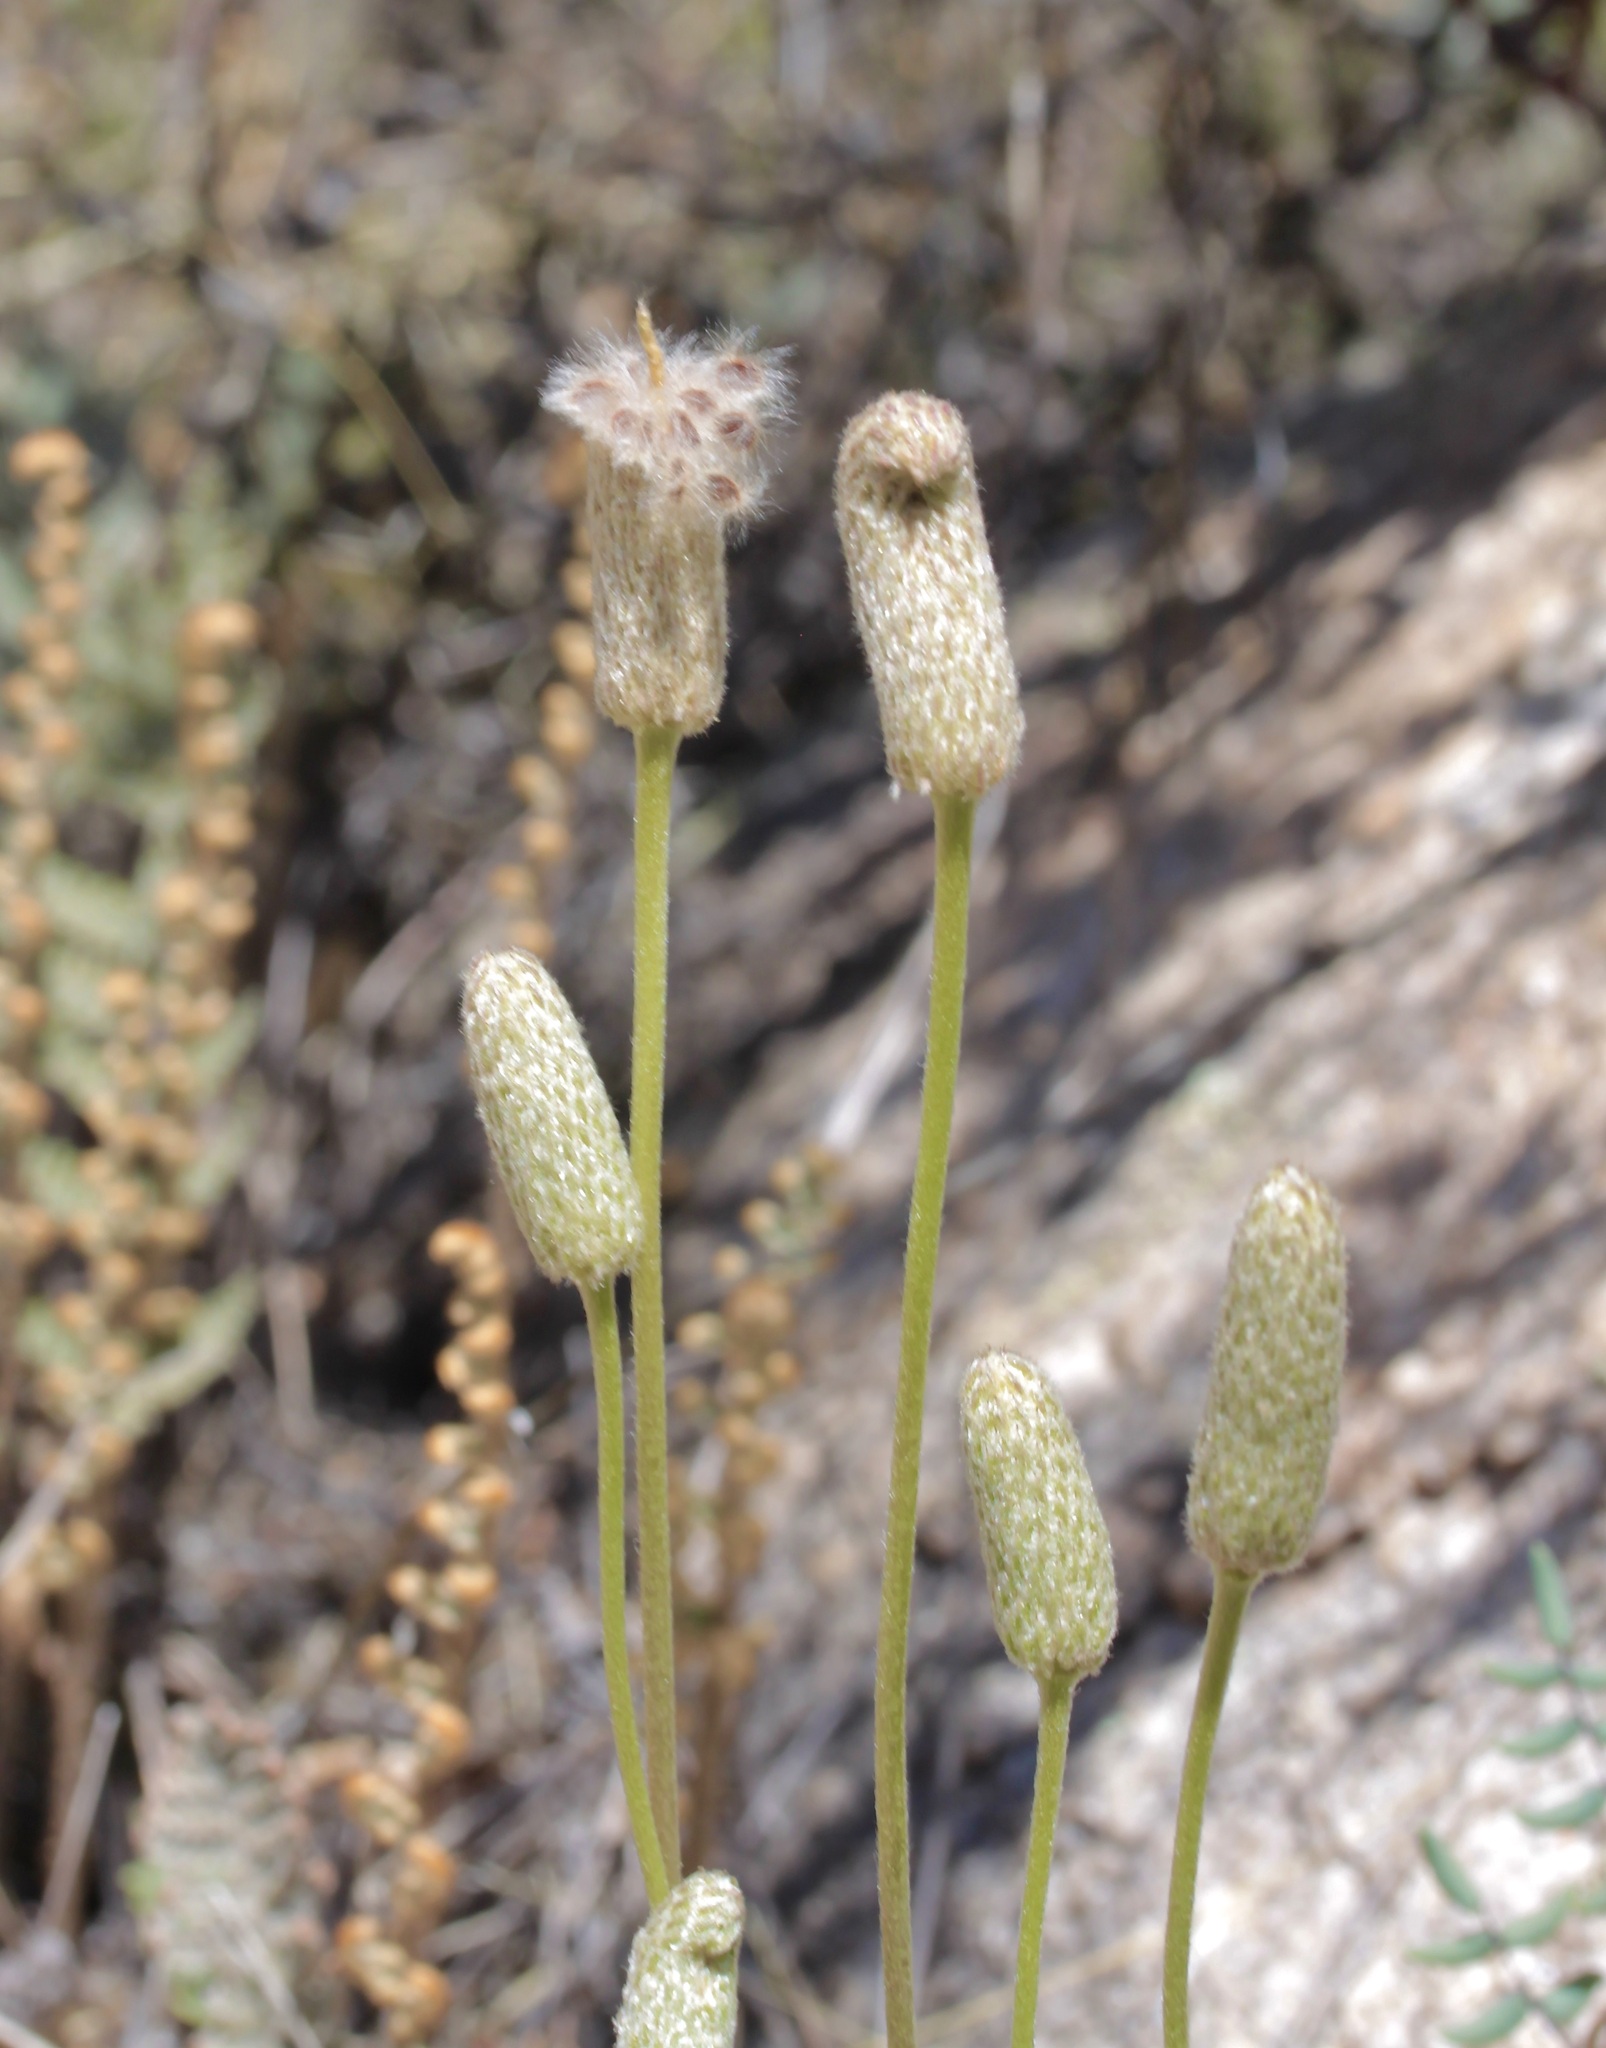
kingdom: Plantae
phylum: Tracheophyta
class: Magnoliopsida
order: Ranunculales
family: Ranunculaceae
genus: Anemone
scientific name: Anemone tuberosa
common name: Desert anemone
